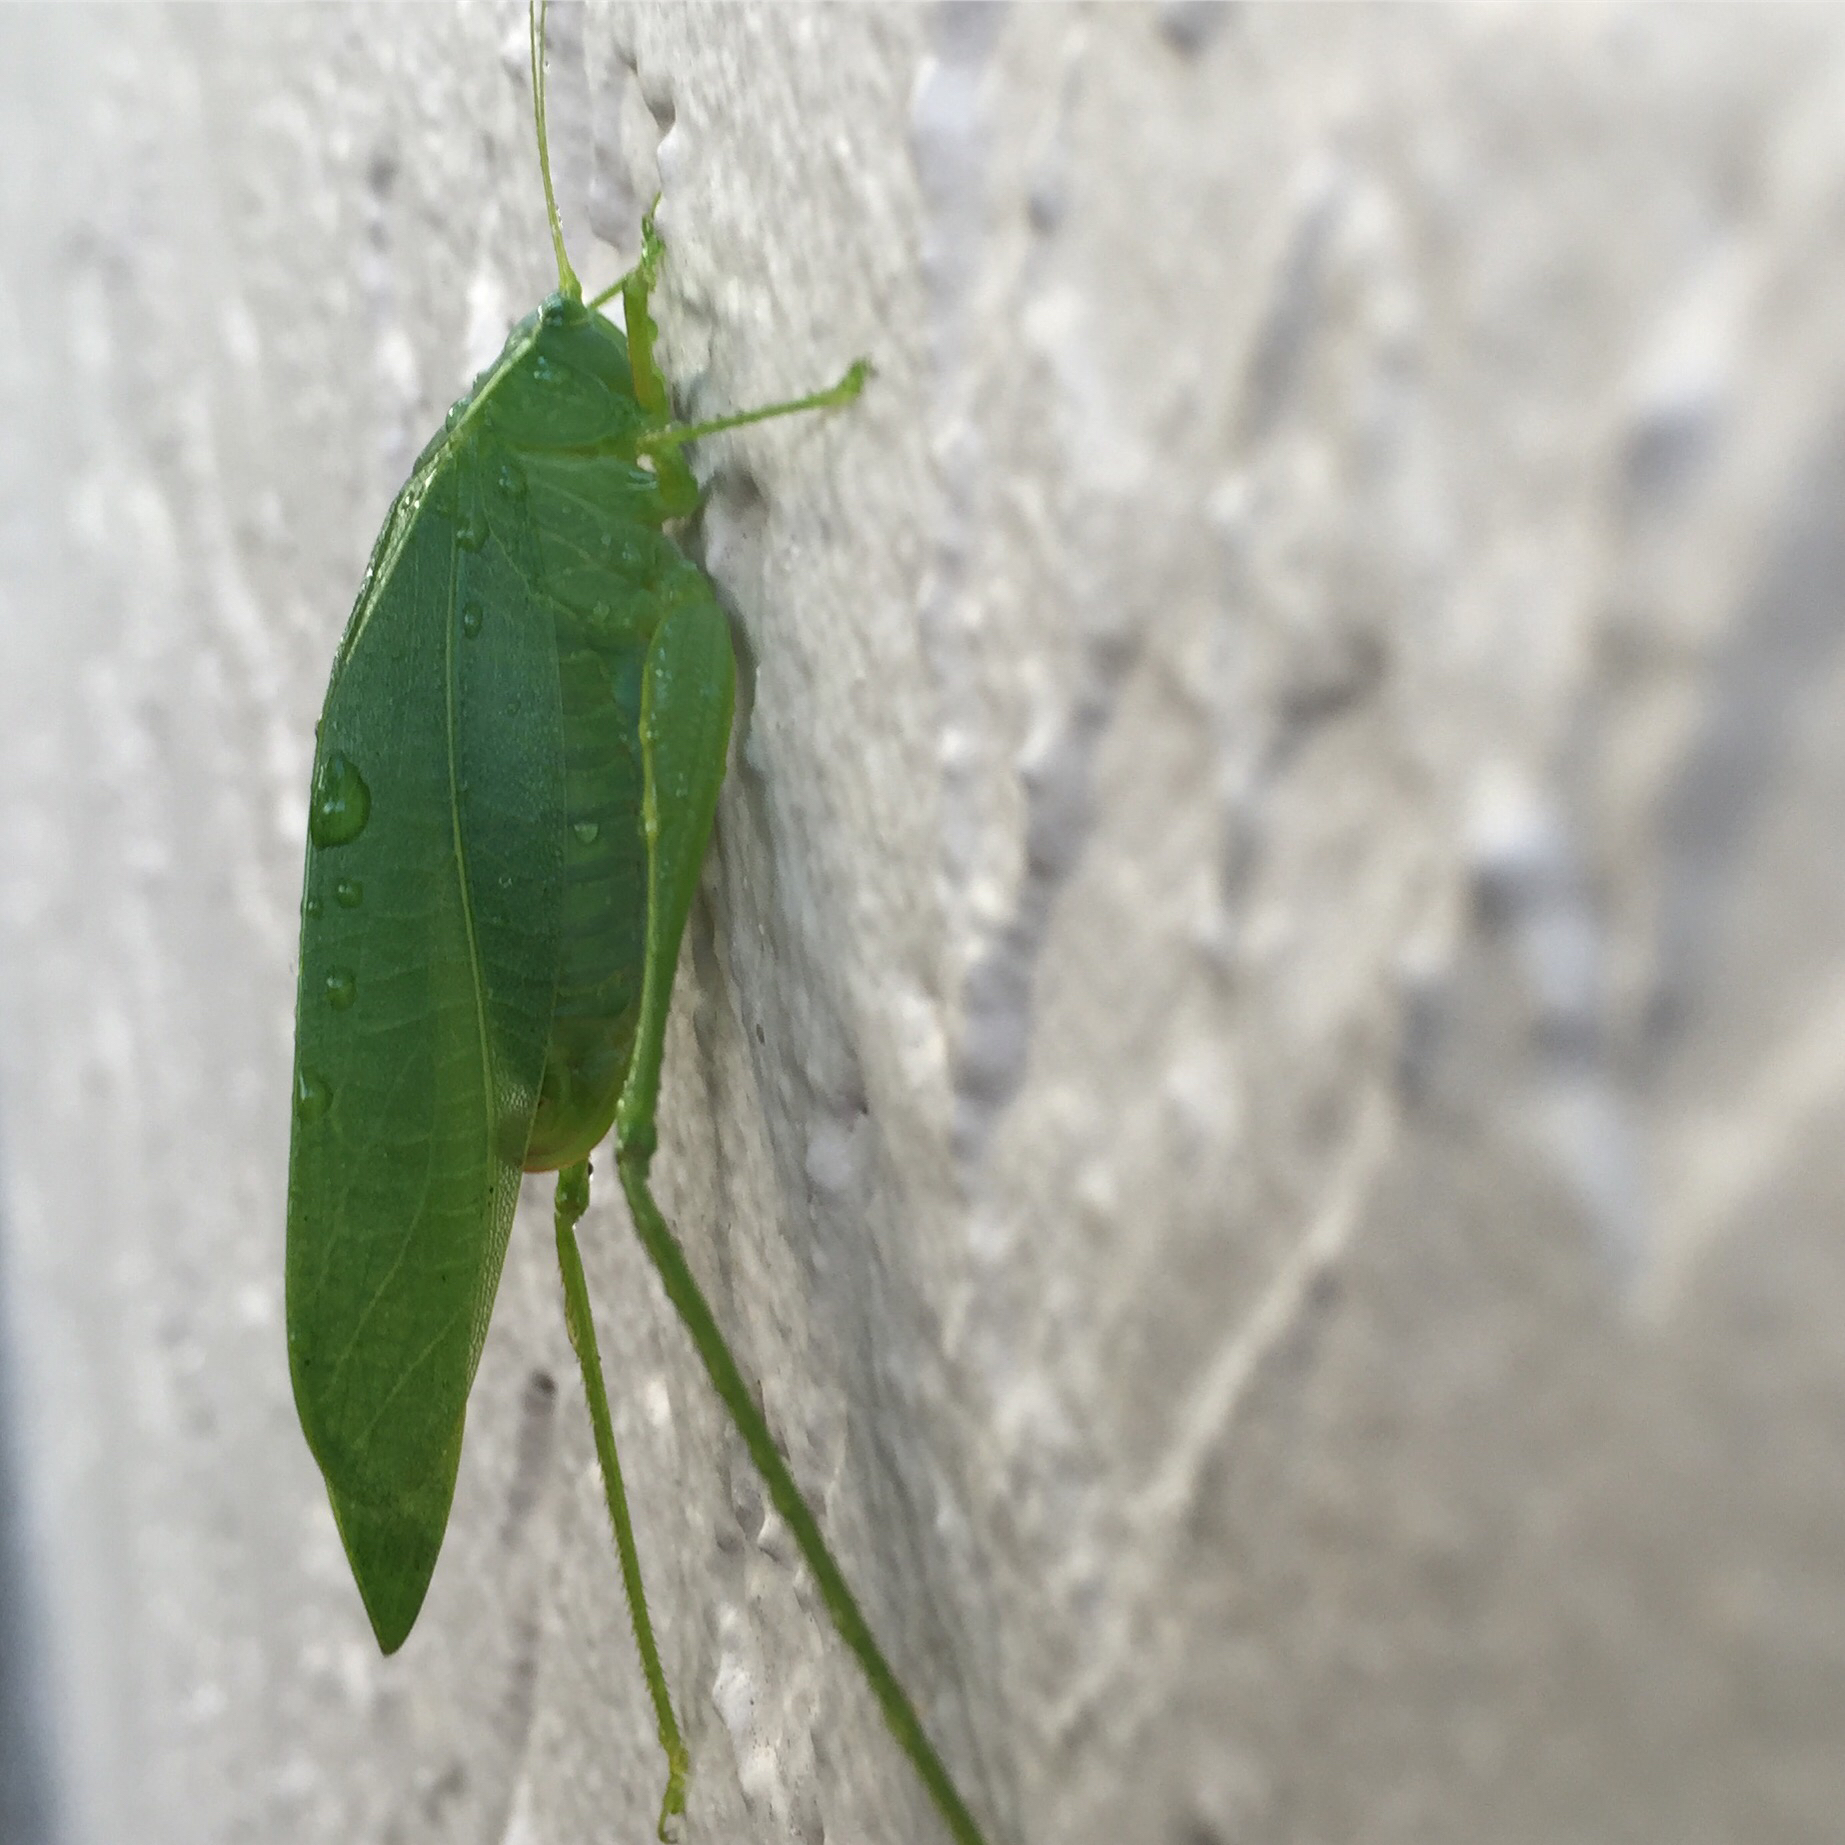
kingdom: Animalia
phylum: Arthropoda
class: Insecta
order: Orthoptera
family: Tettigoniidae
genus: Turpilia
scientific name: Turpilia rostrata
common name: Narrow-beaked katydid
